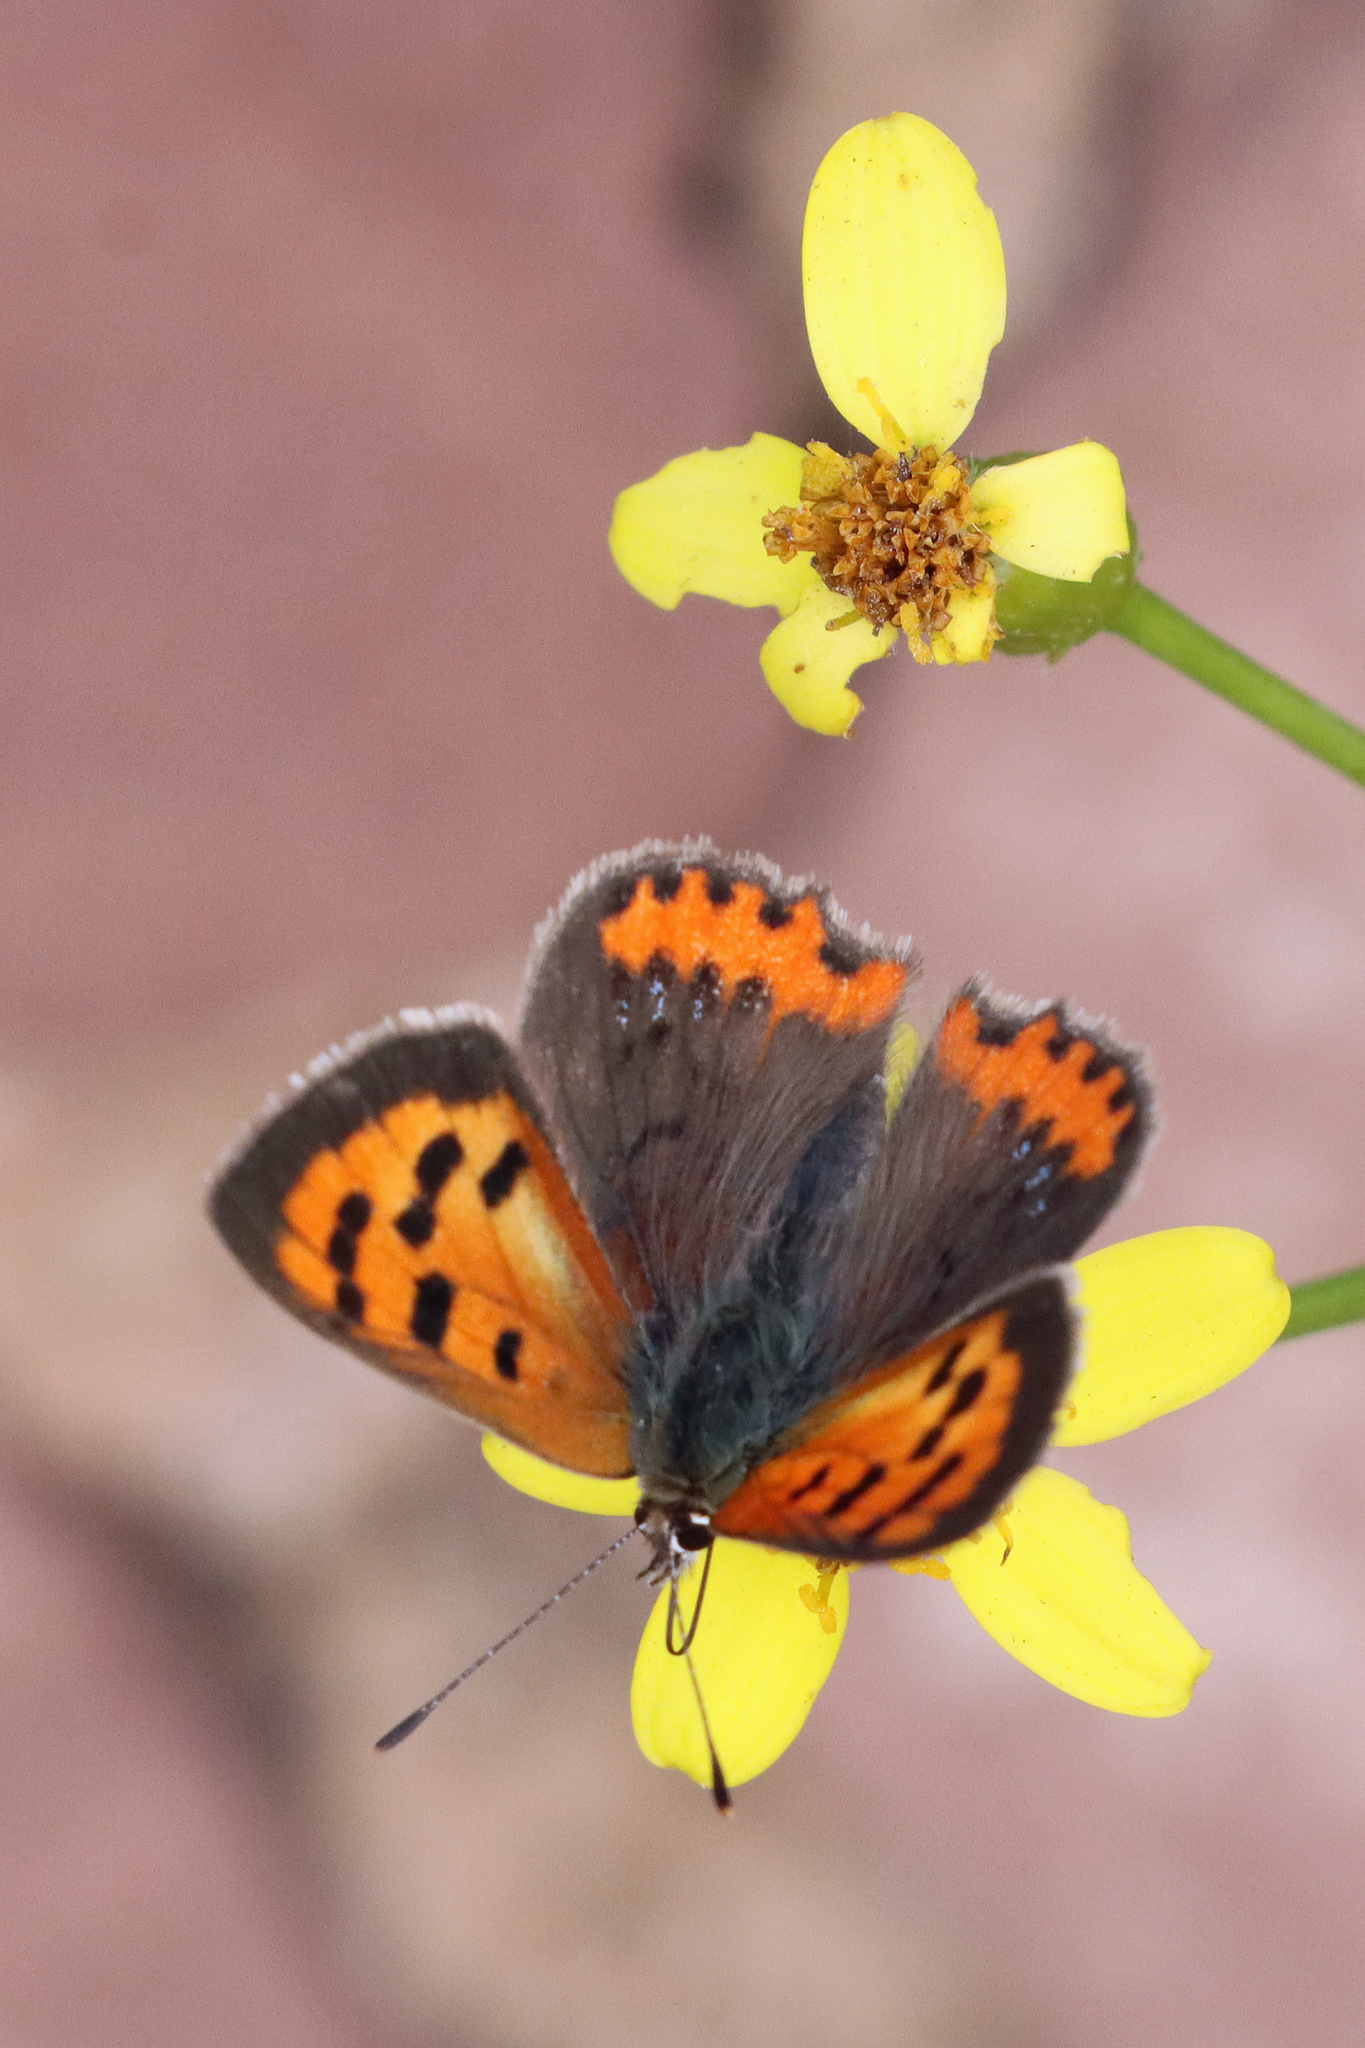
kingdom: Animalia
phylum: Arthropoda
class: Insecta
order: Lepidoptera
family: Lycaenidae
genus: Lycaena
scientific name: Lycaena phlaeas
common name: Small copper
